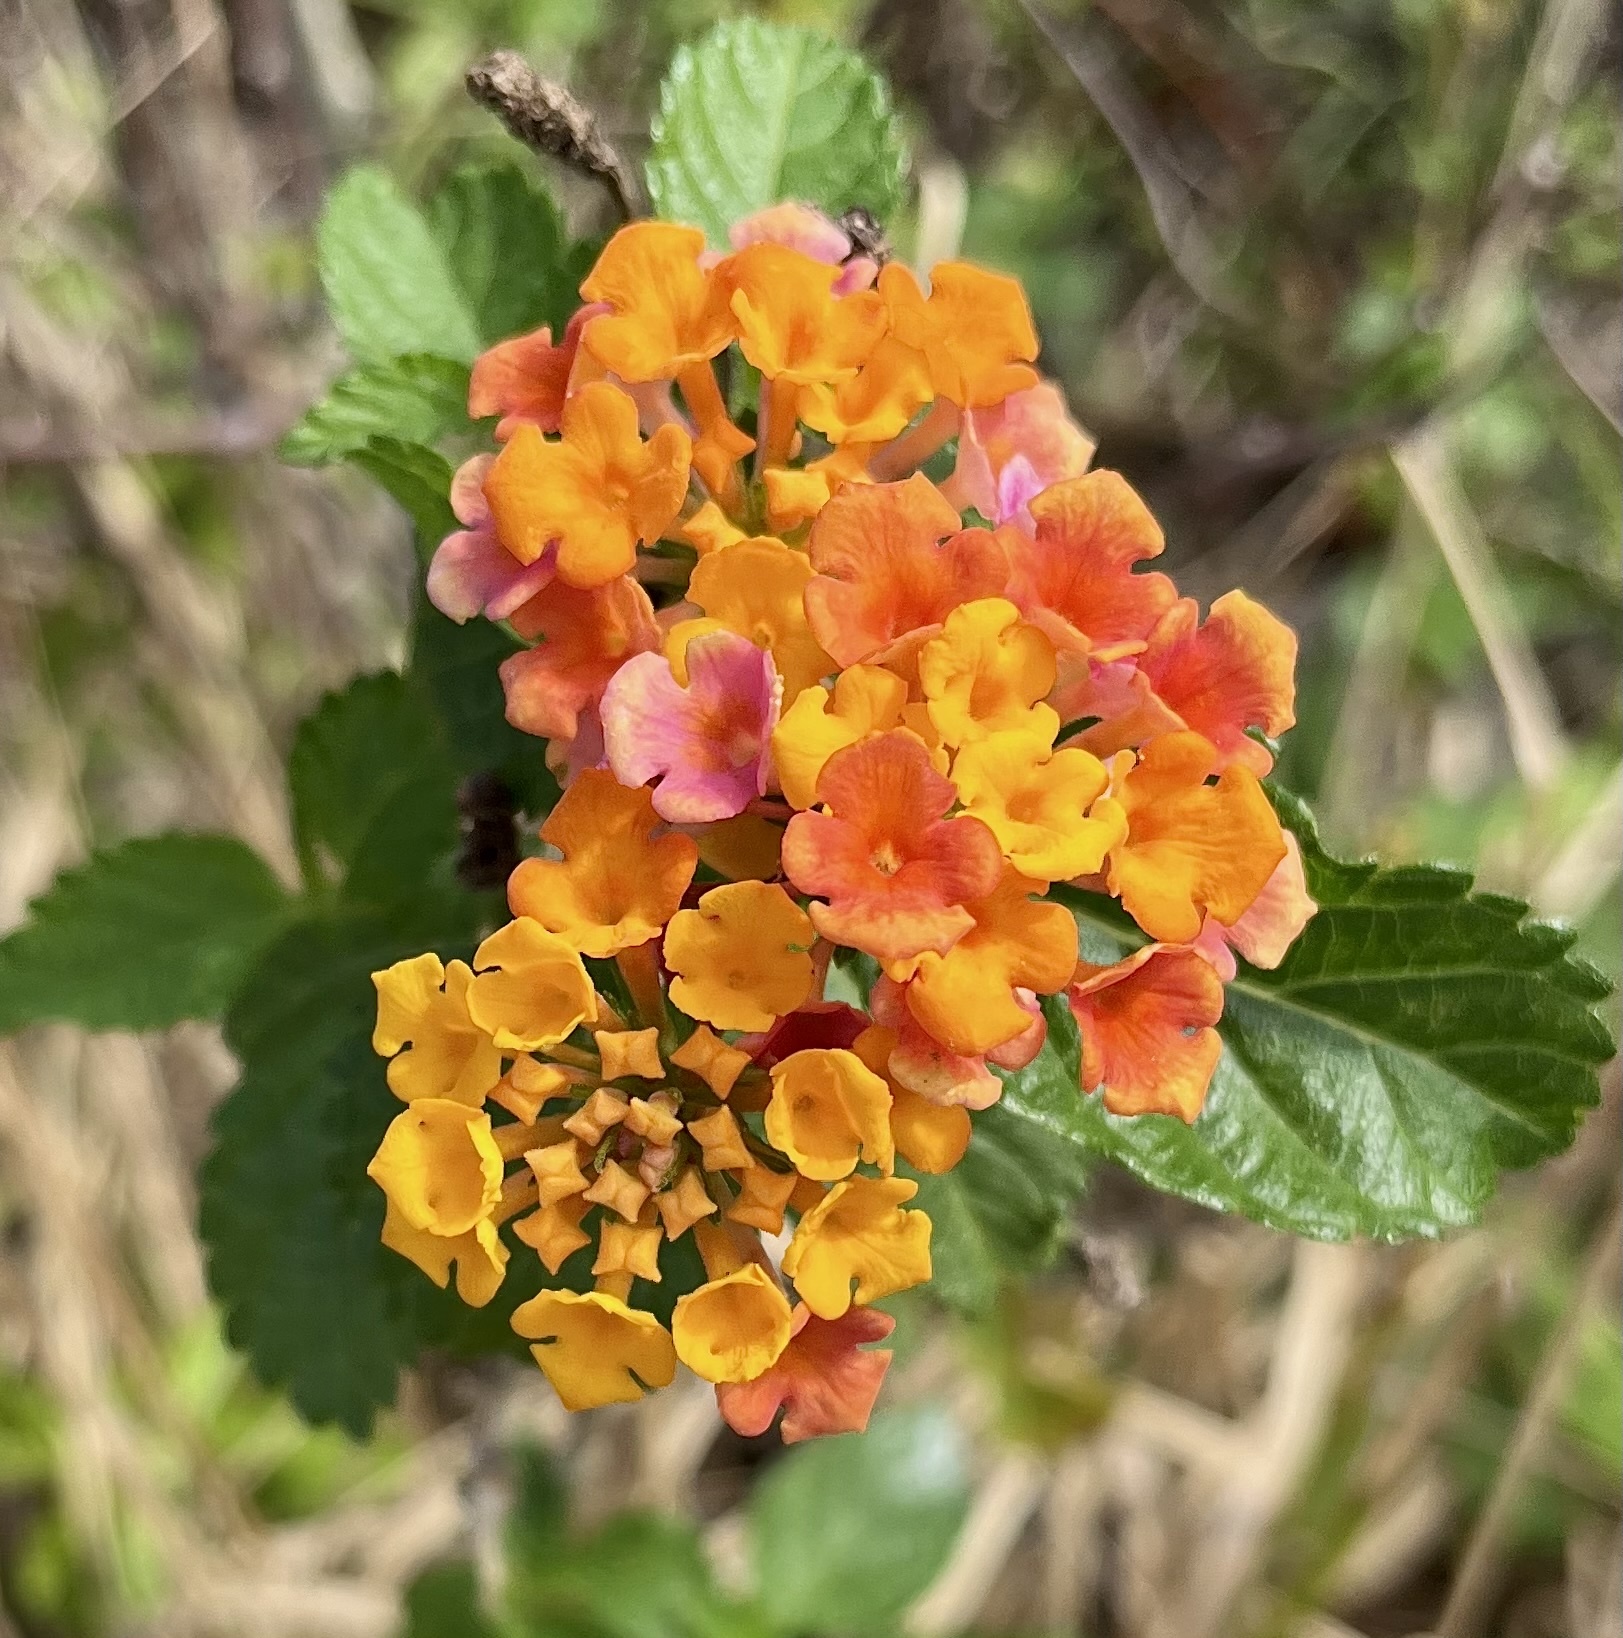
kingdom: Plantae
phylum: Tracheophyta
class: Magnoliopsida
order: Lamiales
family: Verbenaceae
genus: Lantana
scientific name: Lantana strigocamara
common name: Lantana
